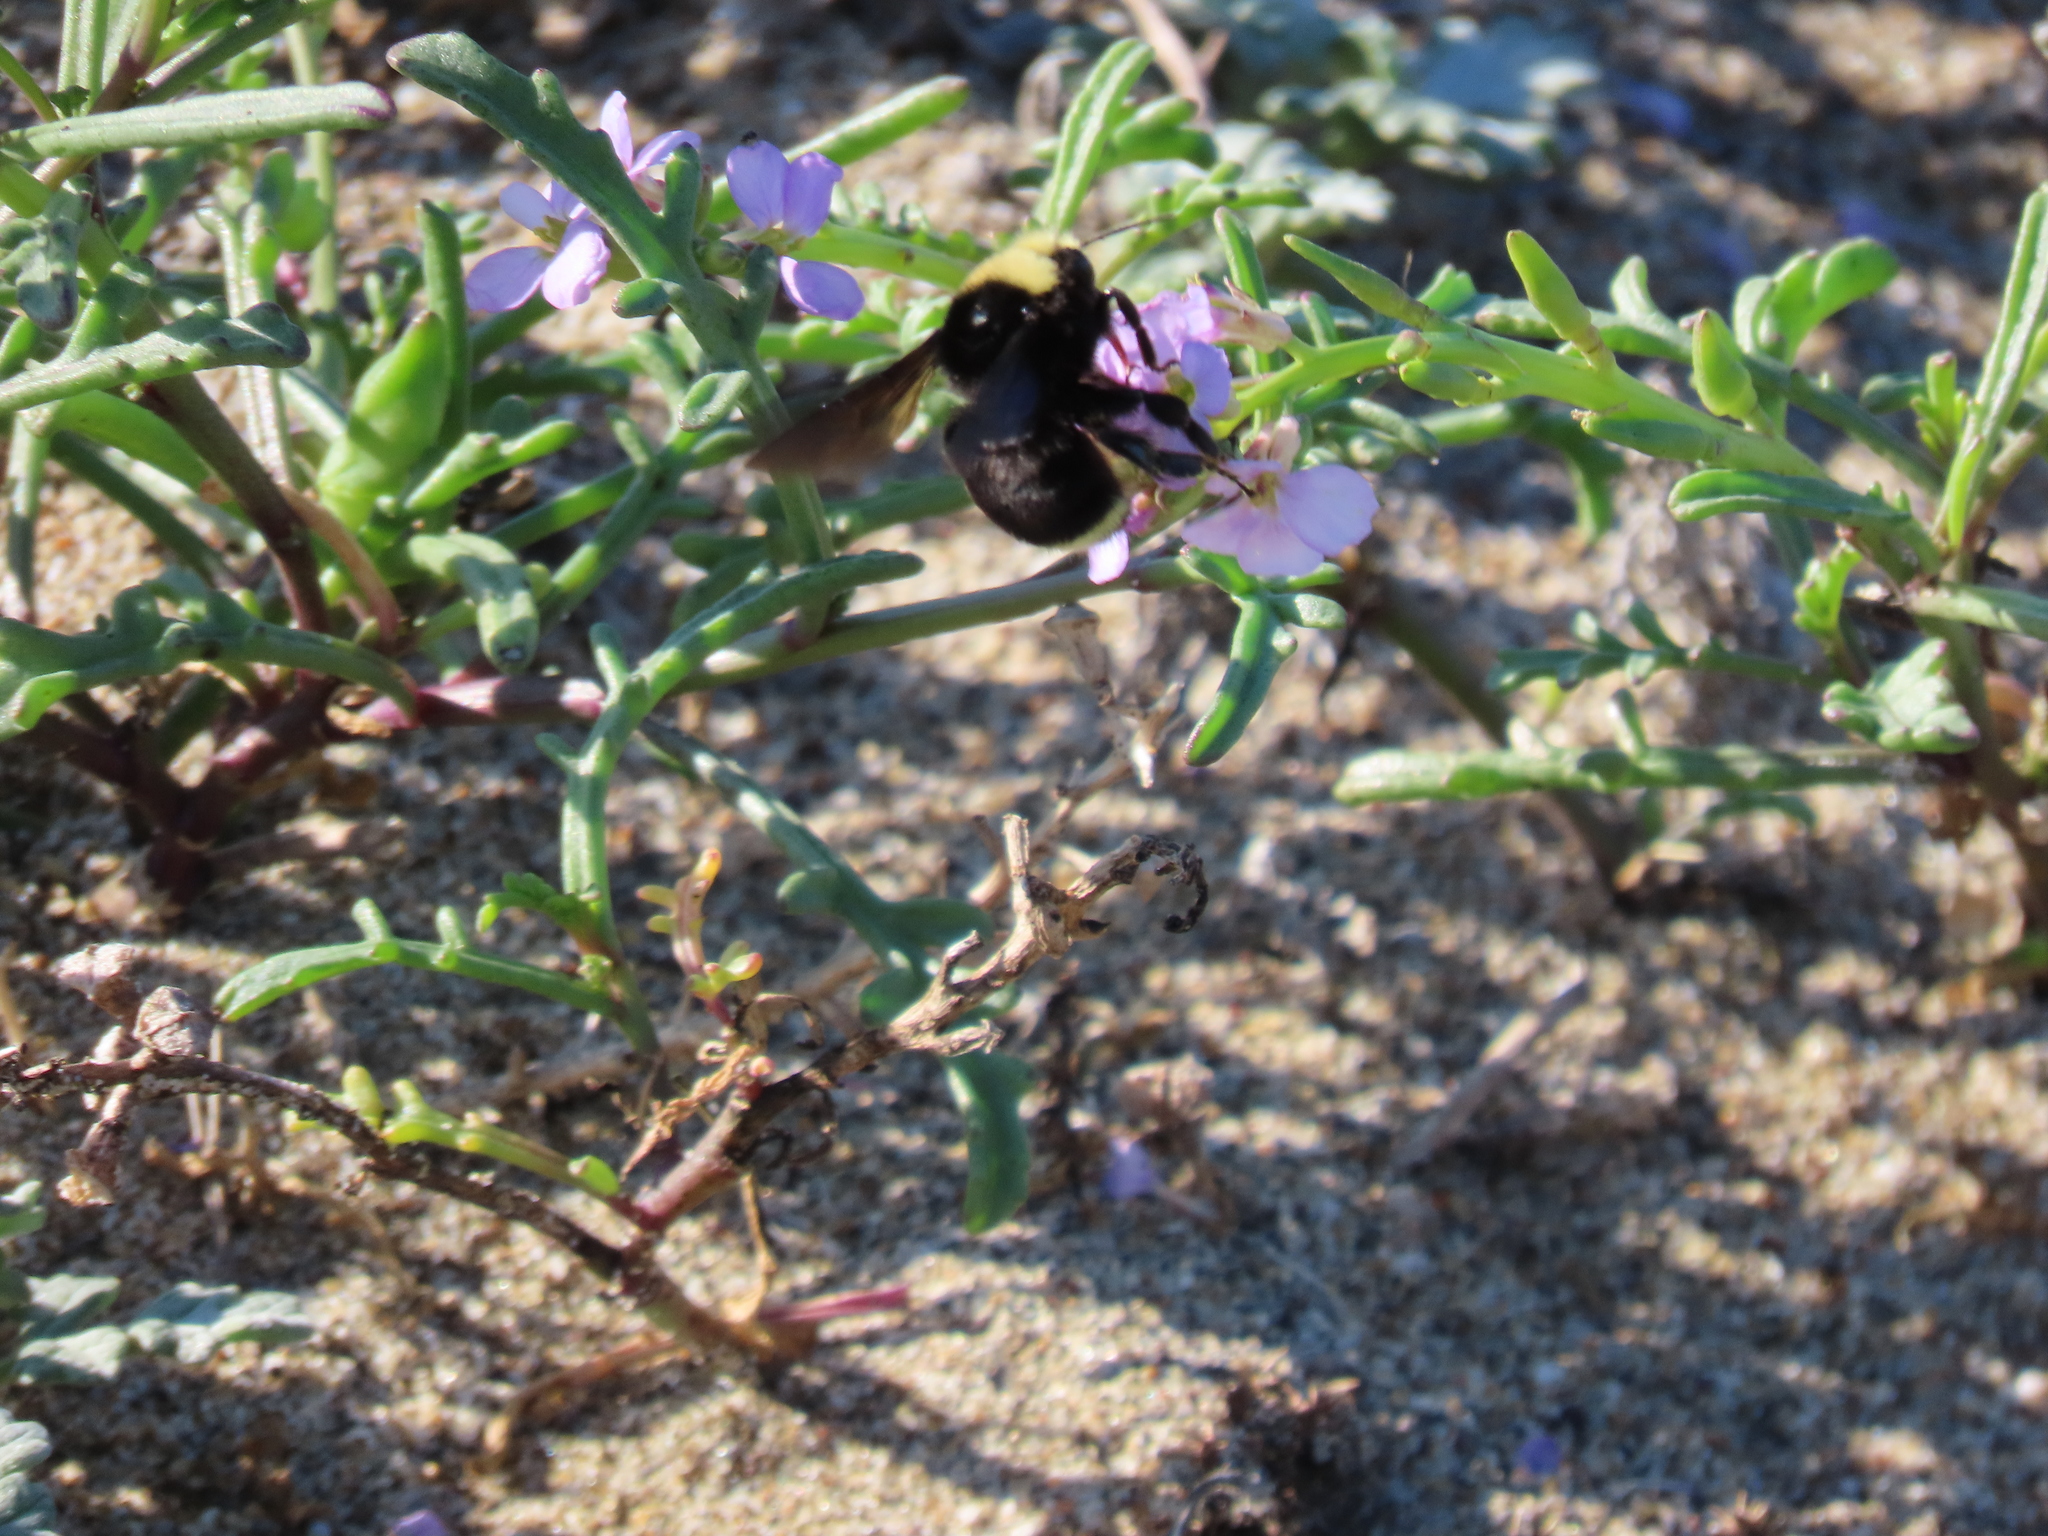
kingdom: Animalia
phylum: Arthropoda
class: Insecta
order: Hymenoptera
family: Apidae
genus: Bombus
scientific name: Bombus vosnesenskii
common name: Vosnesensky bumble bee
